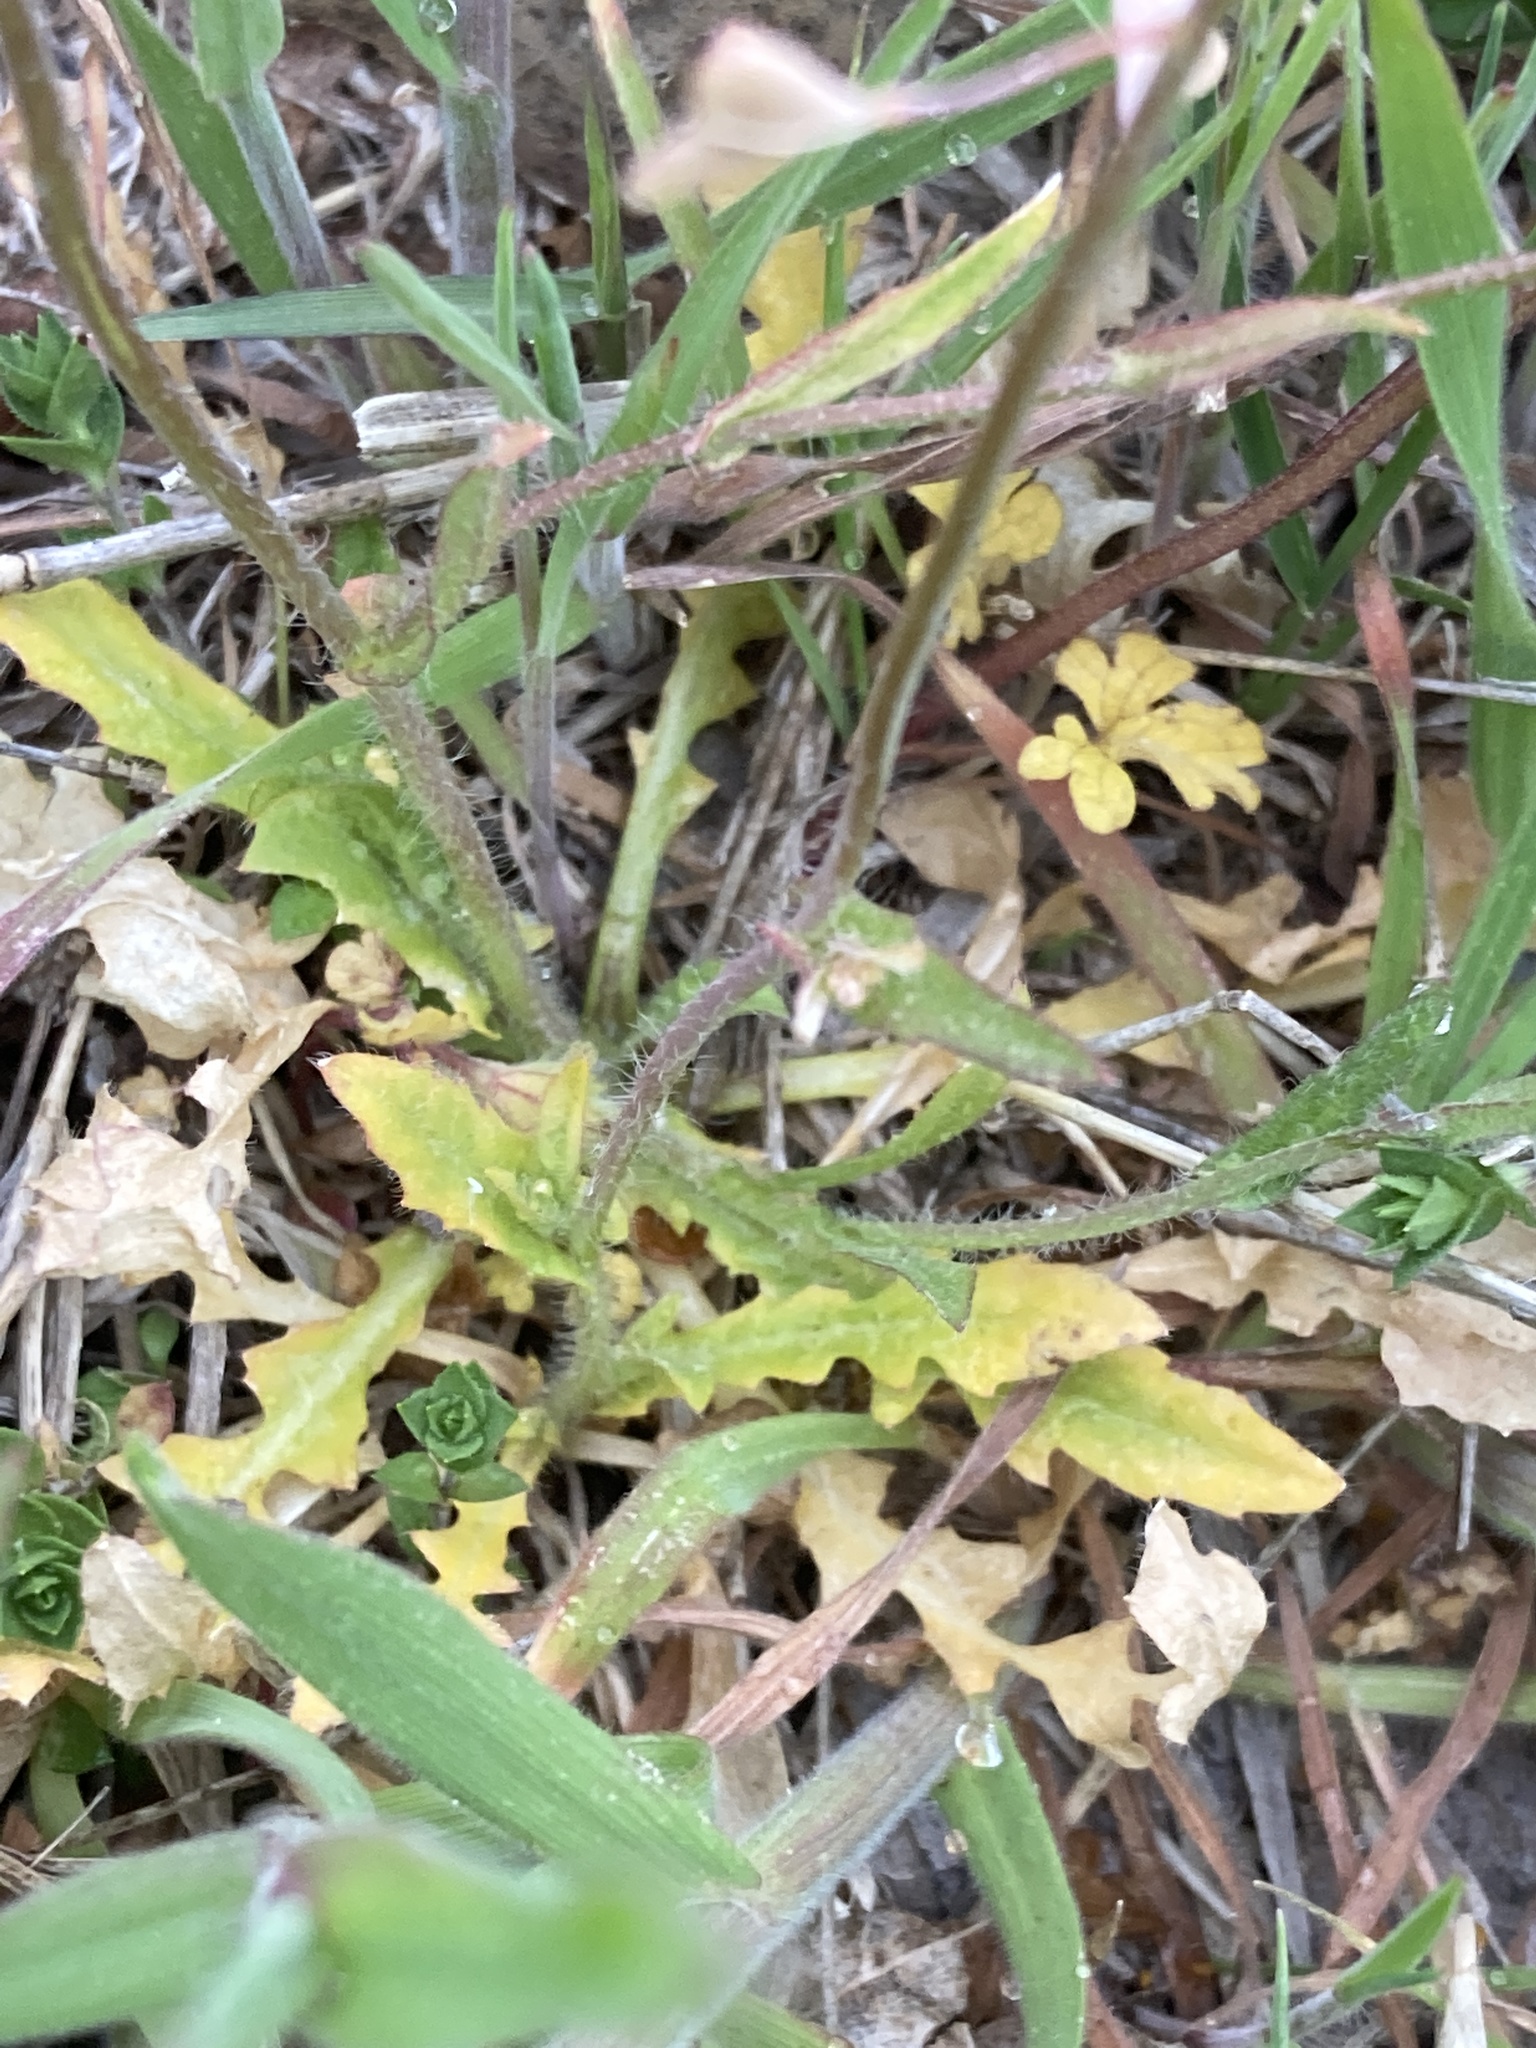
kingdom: Plantae
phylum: Tracheophyta
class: Magnoliopsida
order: Brassicales
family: Brassicaceae
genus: Capsella
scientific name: Capsella bursa-pastoris
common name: Shepherd's purse
